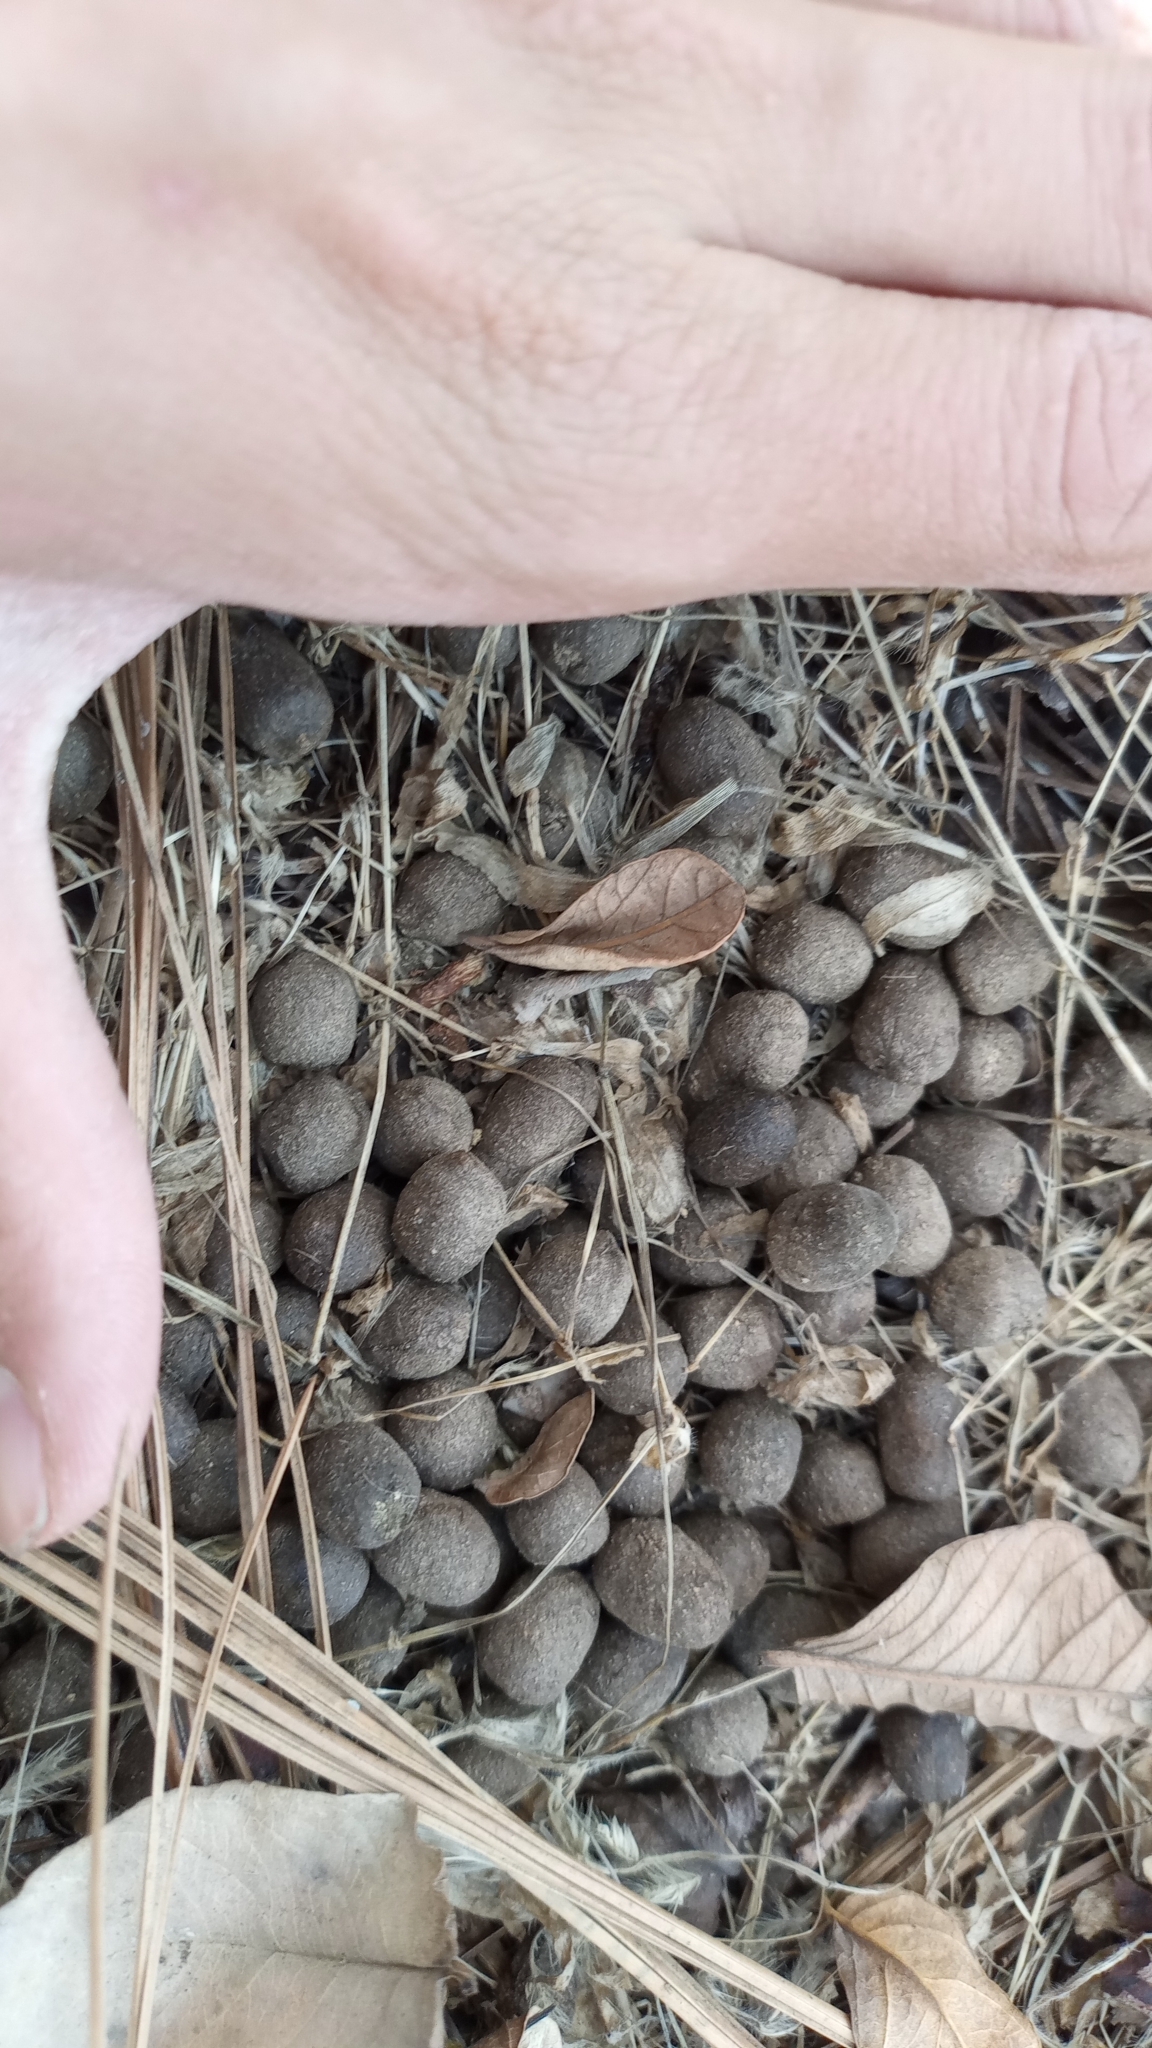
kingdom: Animalia
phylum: Chordata
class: Mammalia
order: Artiodactyla
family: Cervidae
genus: Odocoileus
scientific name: Odocoileus virginianus
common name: White-tailed deer
